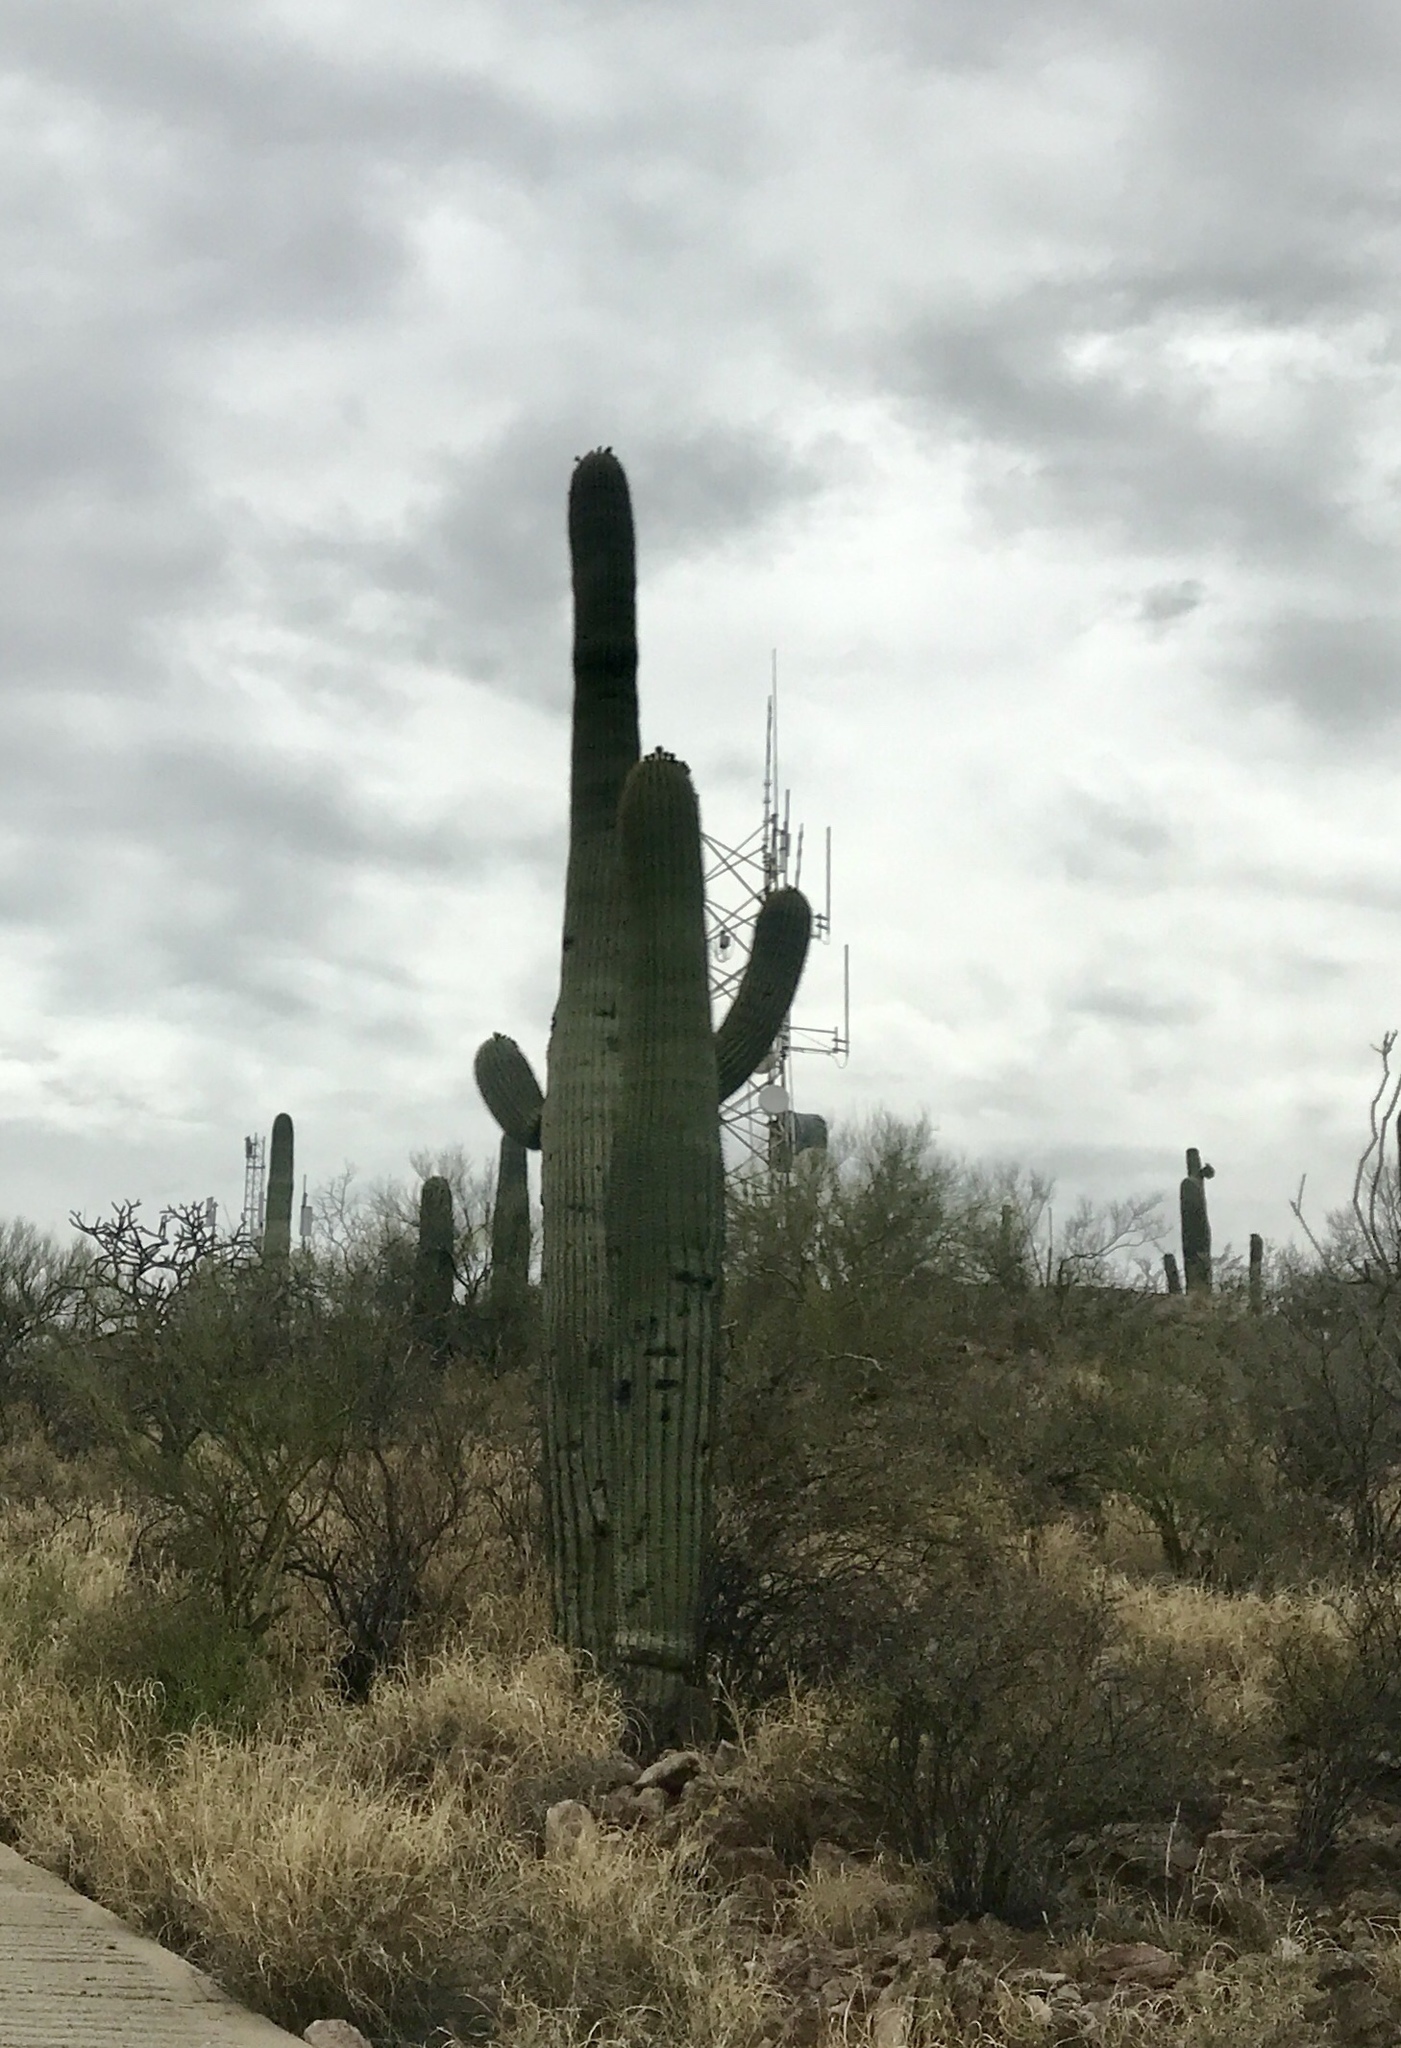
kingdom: Plantae
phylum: Tracheophyta
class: Magnoliopsida
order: Caryophyllales
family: Cactaceae
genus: Carnegiea
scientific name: Carnegiea gigantea
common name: Saguaro
